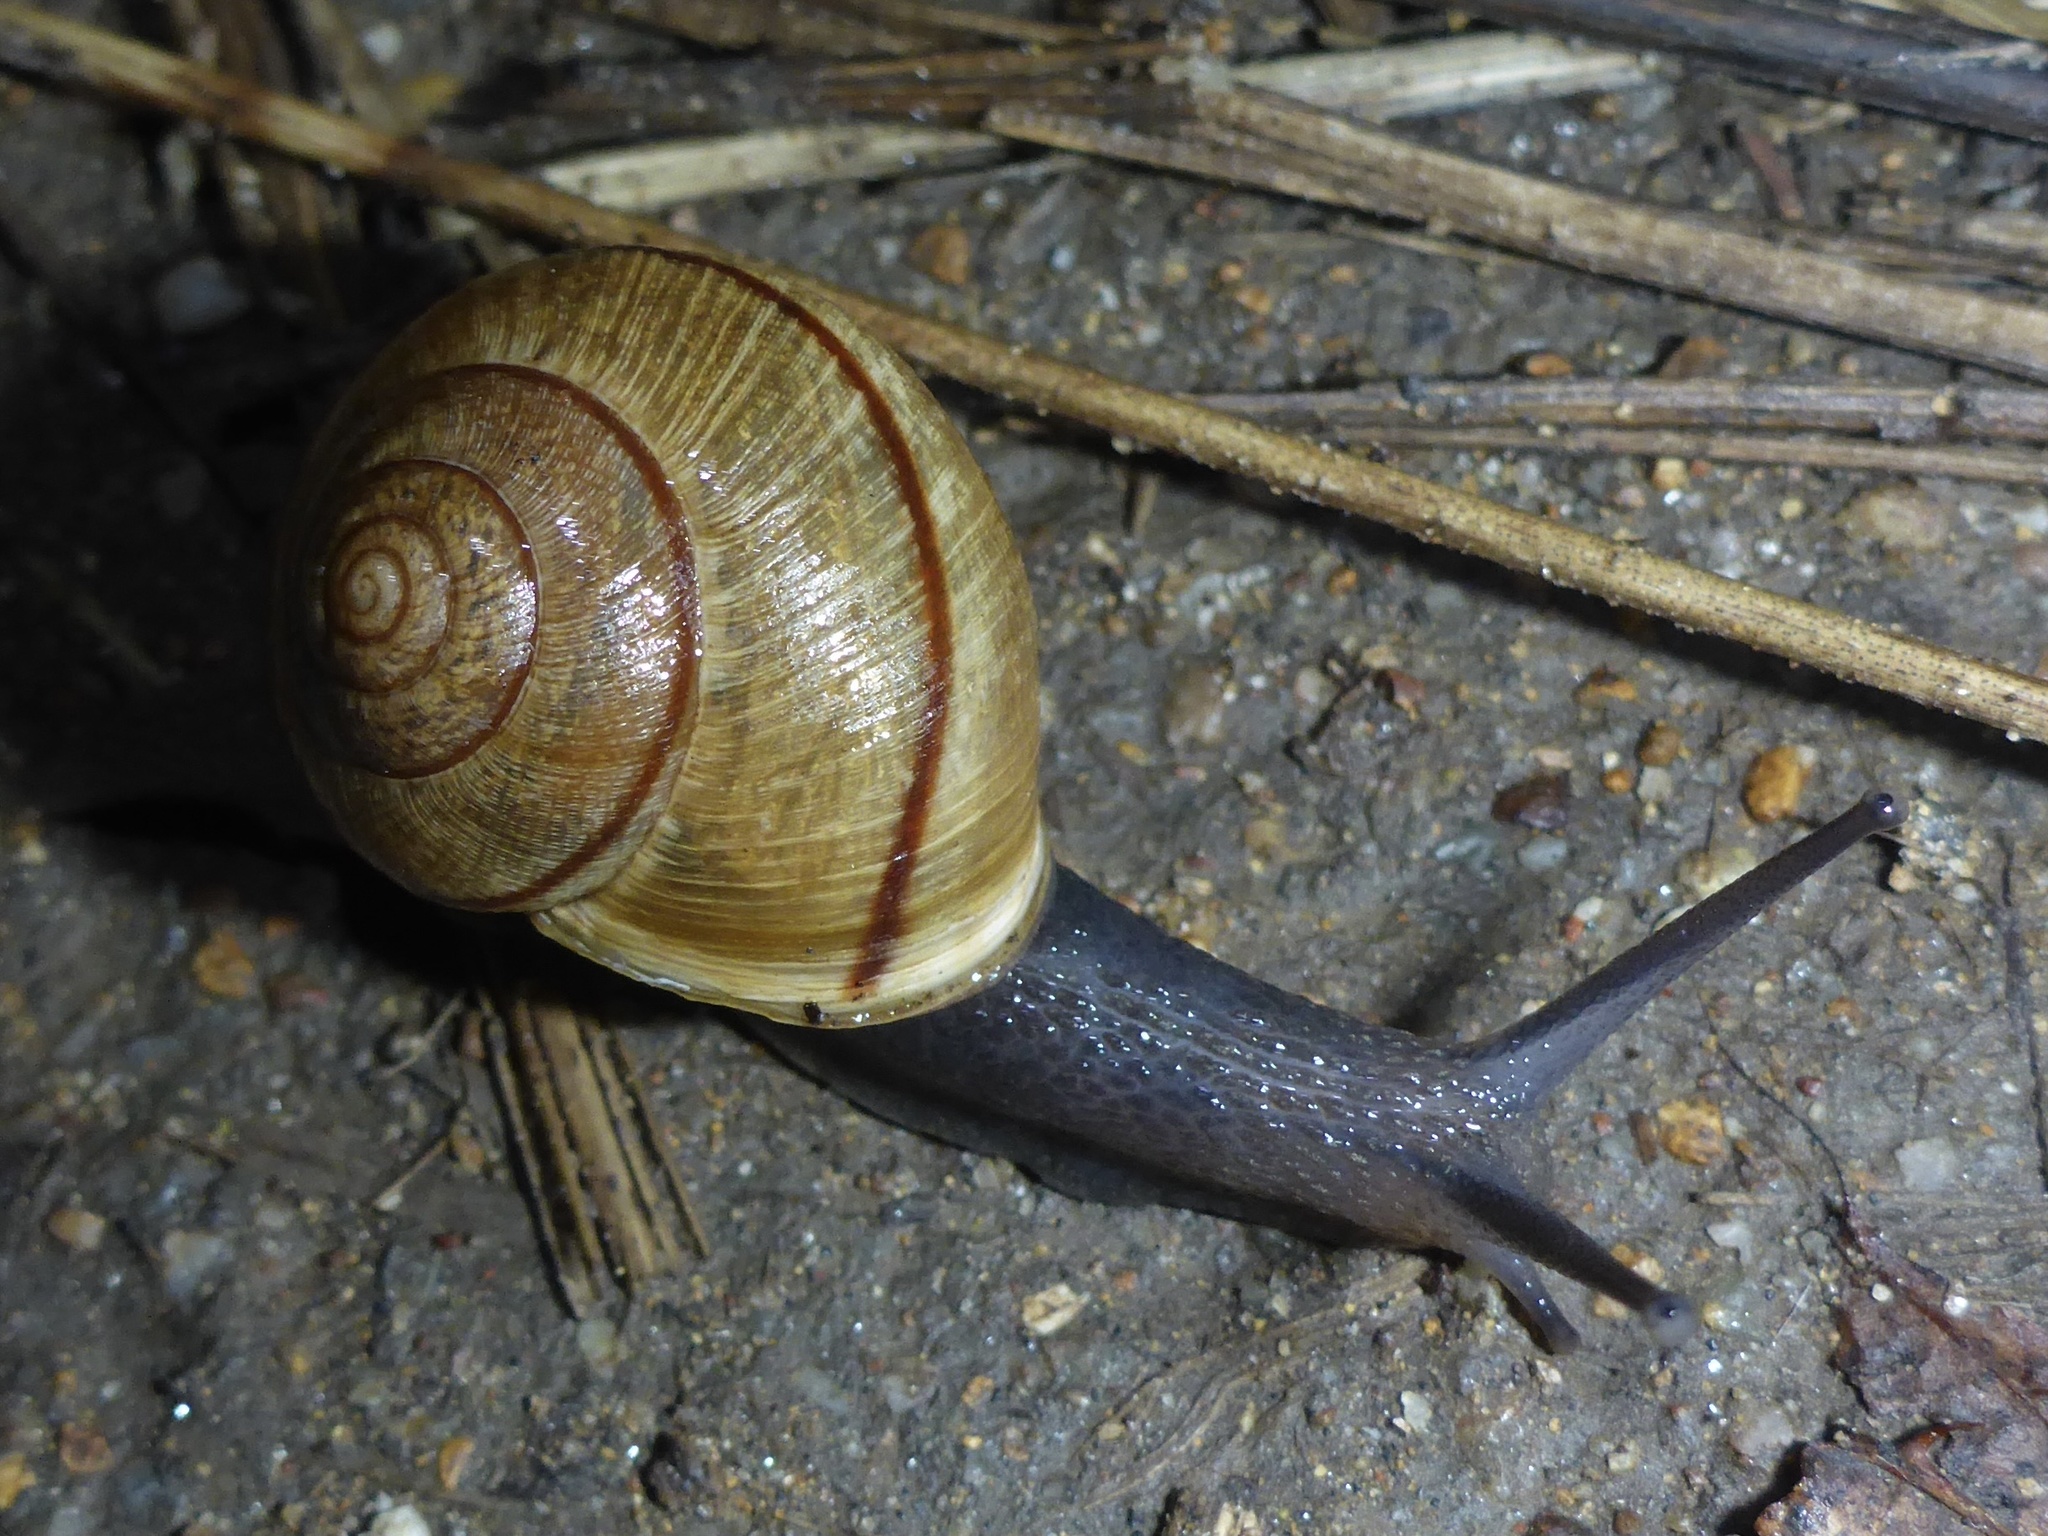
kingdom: Animalia
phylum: Mollusca
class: Gastropoda
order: Stylommatophora
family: Xanthonychidae
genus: Helminthoglypta
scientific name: Helminthoglypta nickliniana
